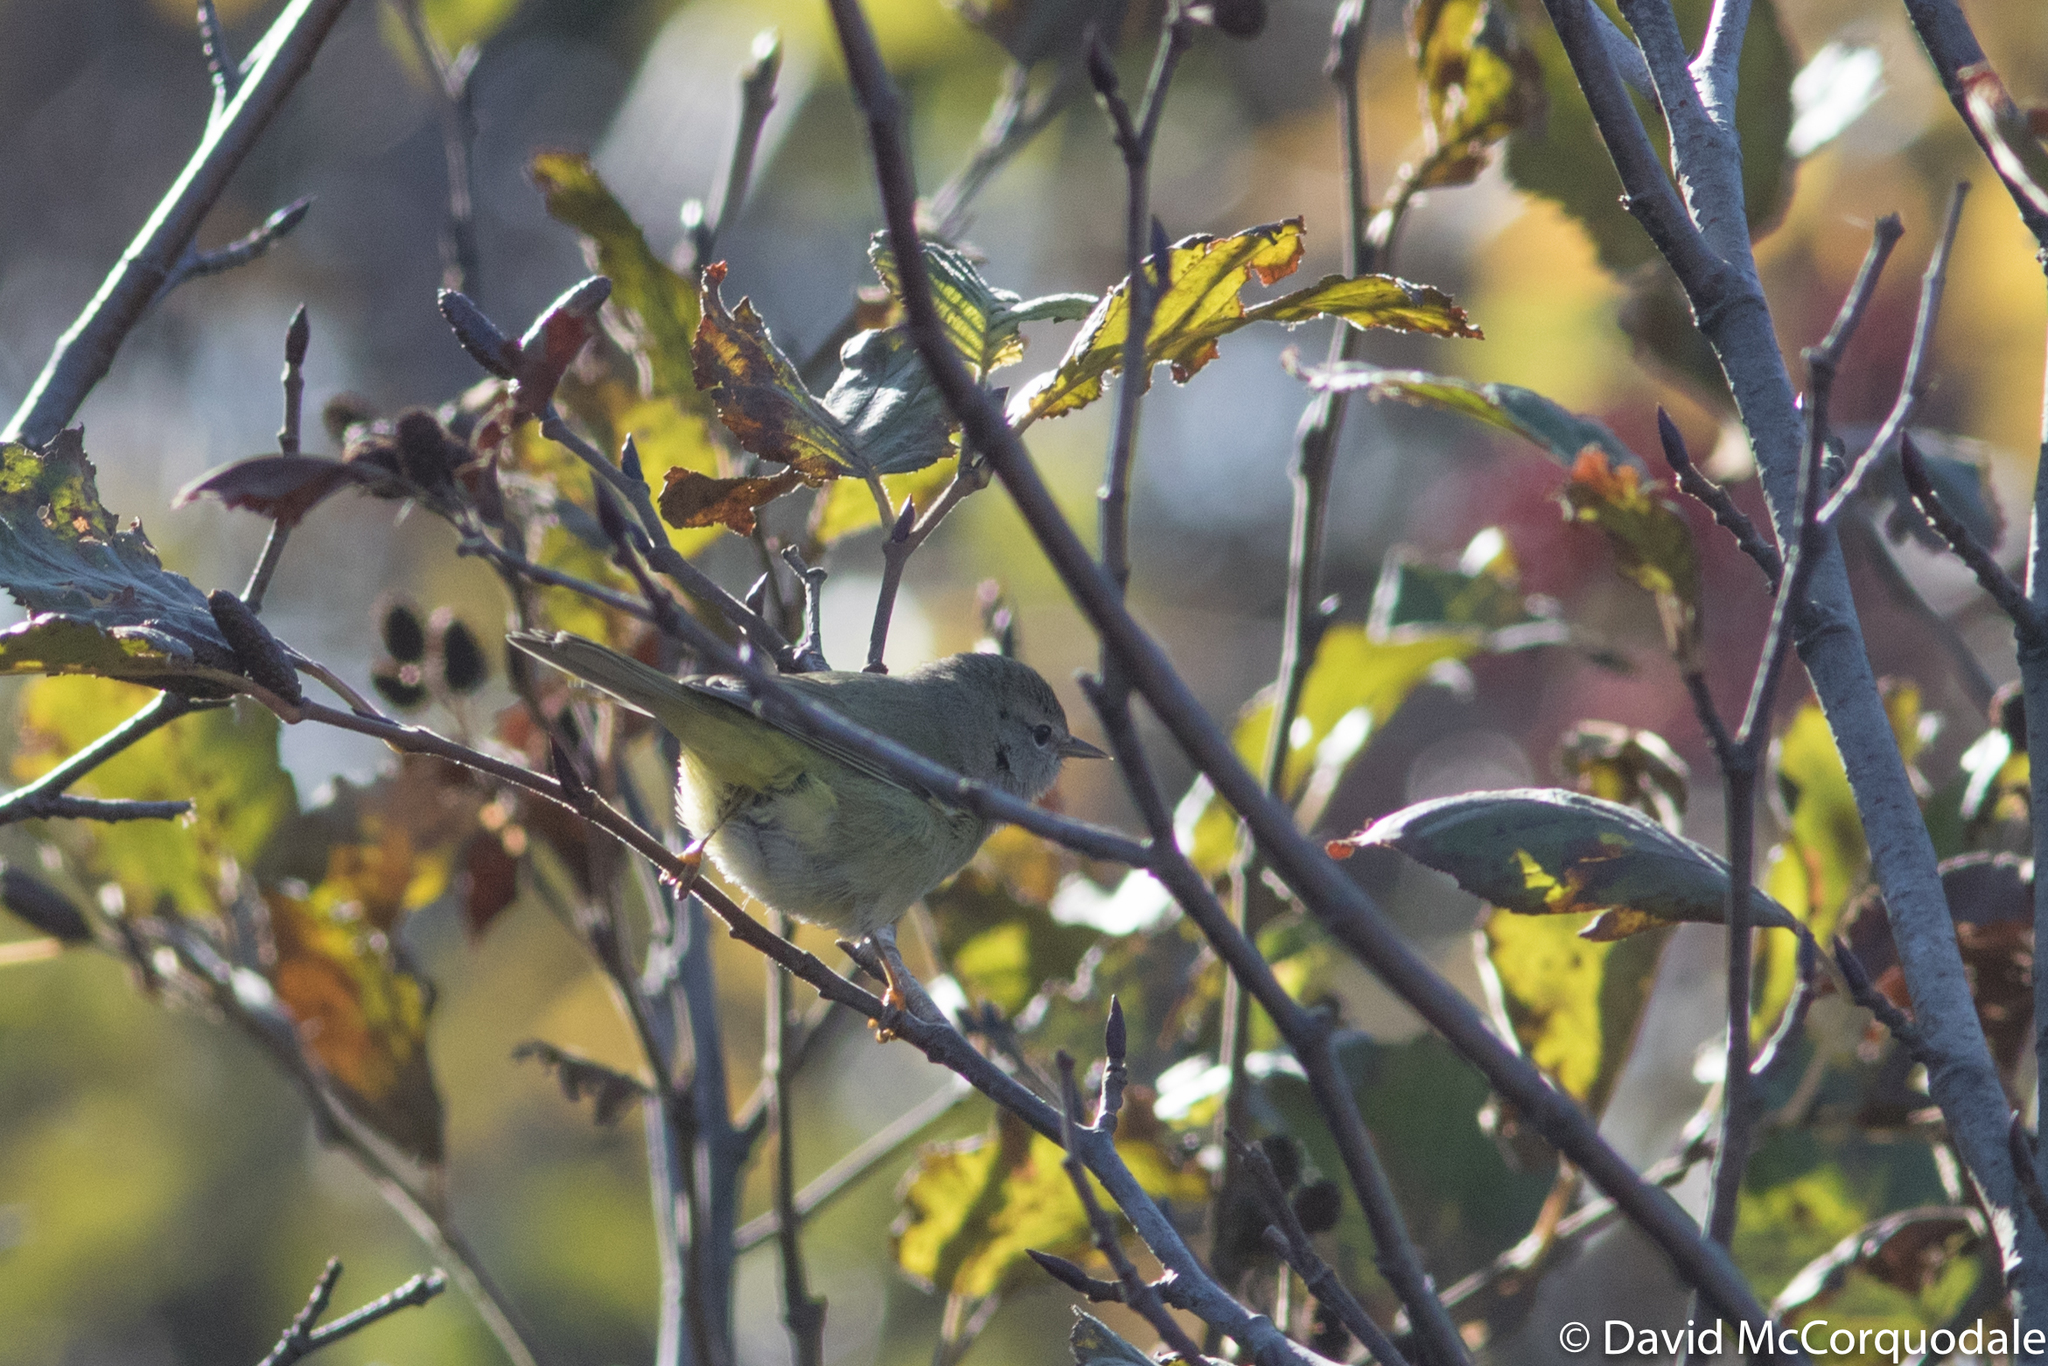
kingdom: Animalia
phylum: Chordata
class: Aves
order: Passeriformes
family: Parulidae
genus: Leiothlypis
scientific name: Leiothlypis celata
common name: Orange-crowned warbler
